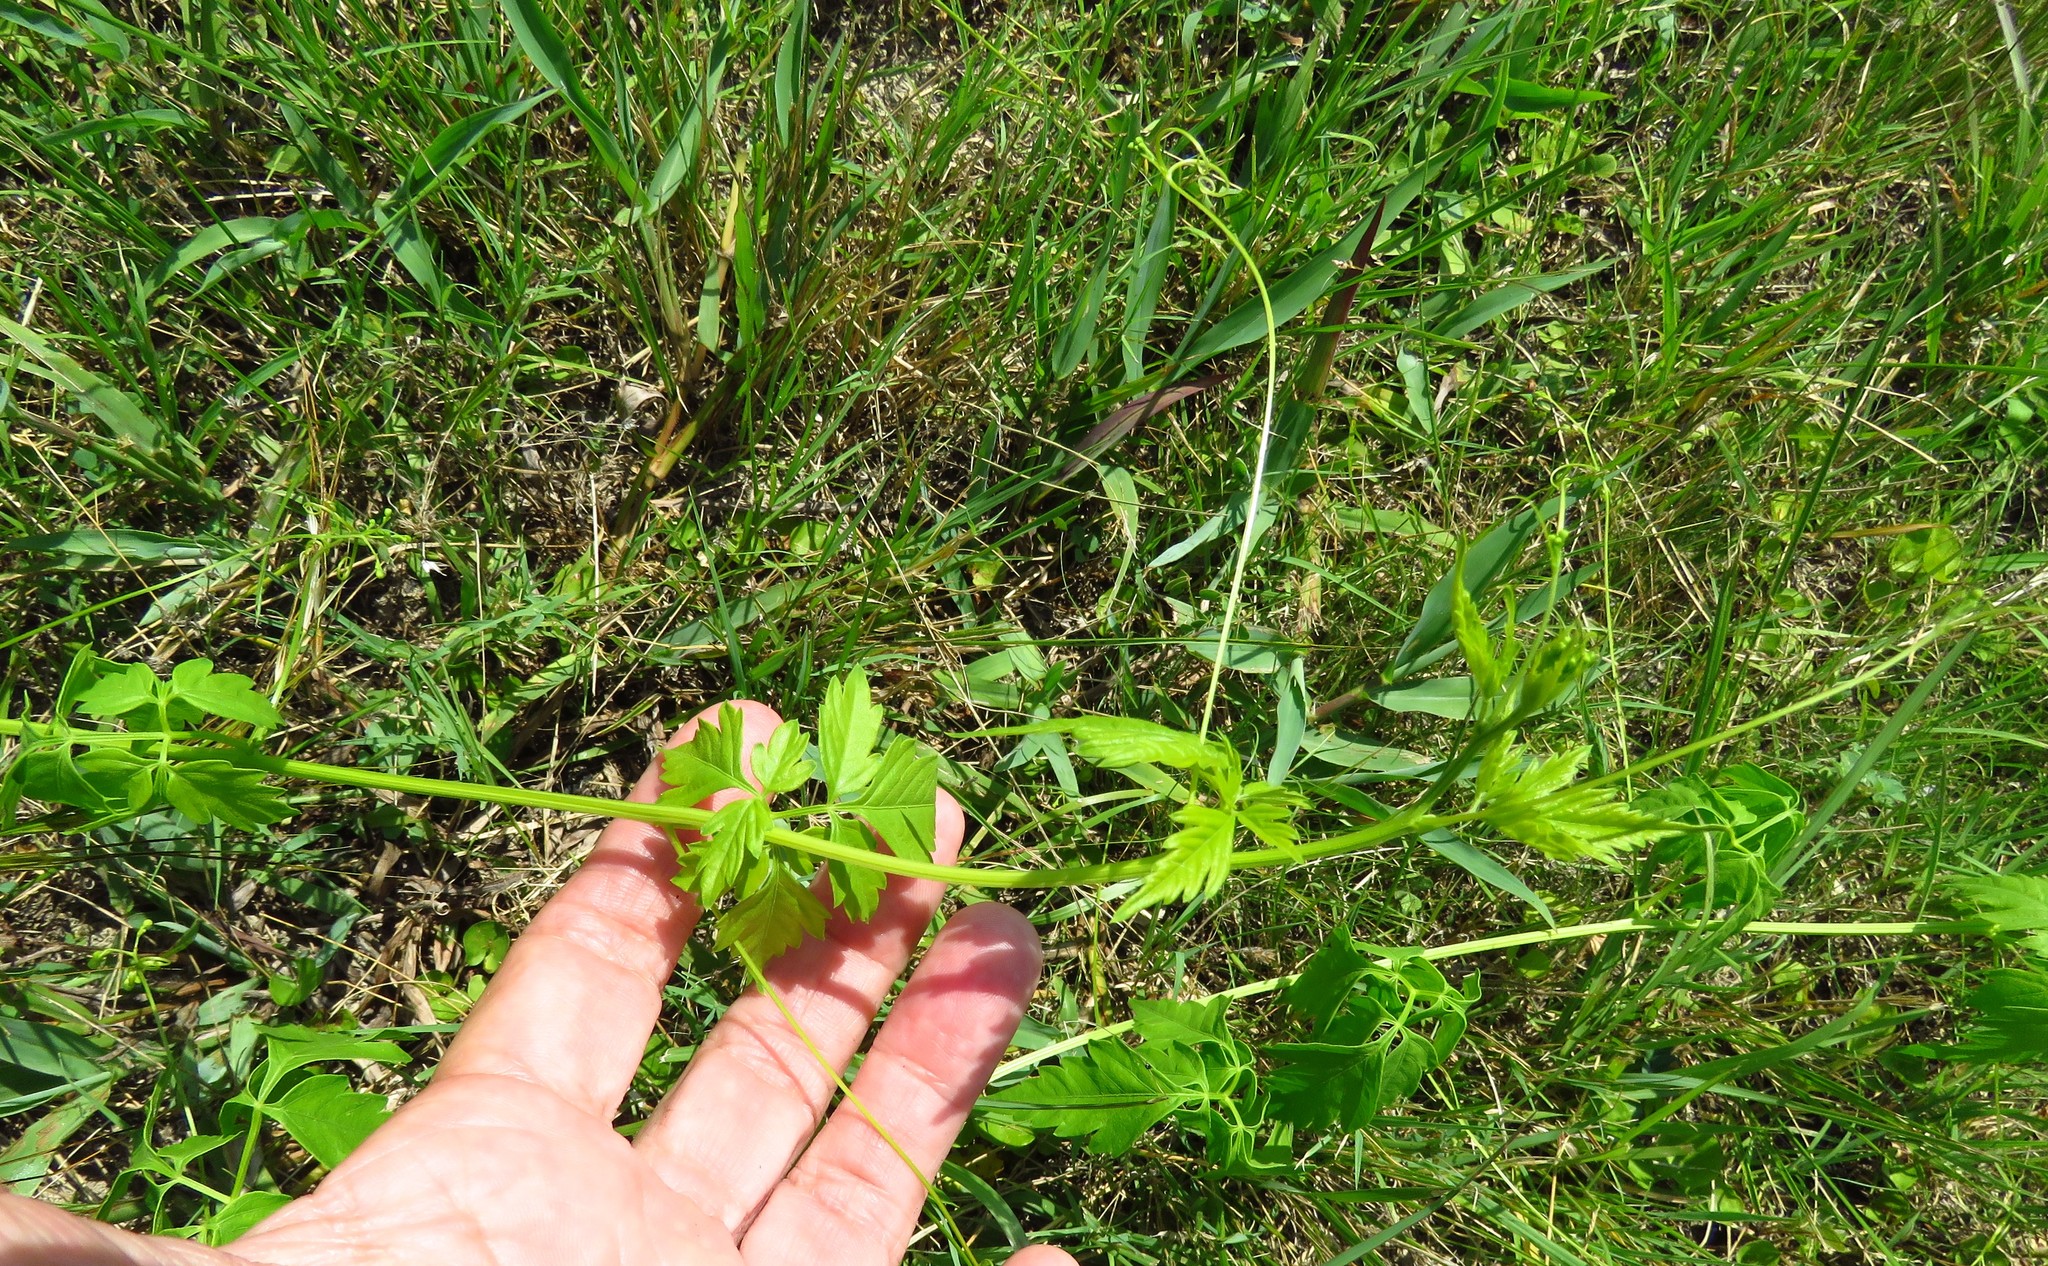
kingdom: Plantae
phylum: Tracheophyta
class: Magnoliopsida
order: Sapindales
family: Sapindaceae
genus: Cardiospermum
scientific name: Cardiospermum halicacabum
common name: Balloon vine
